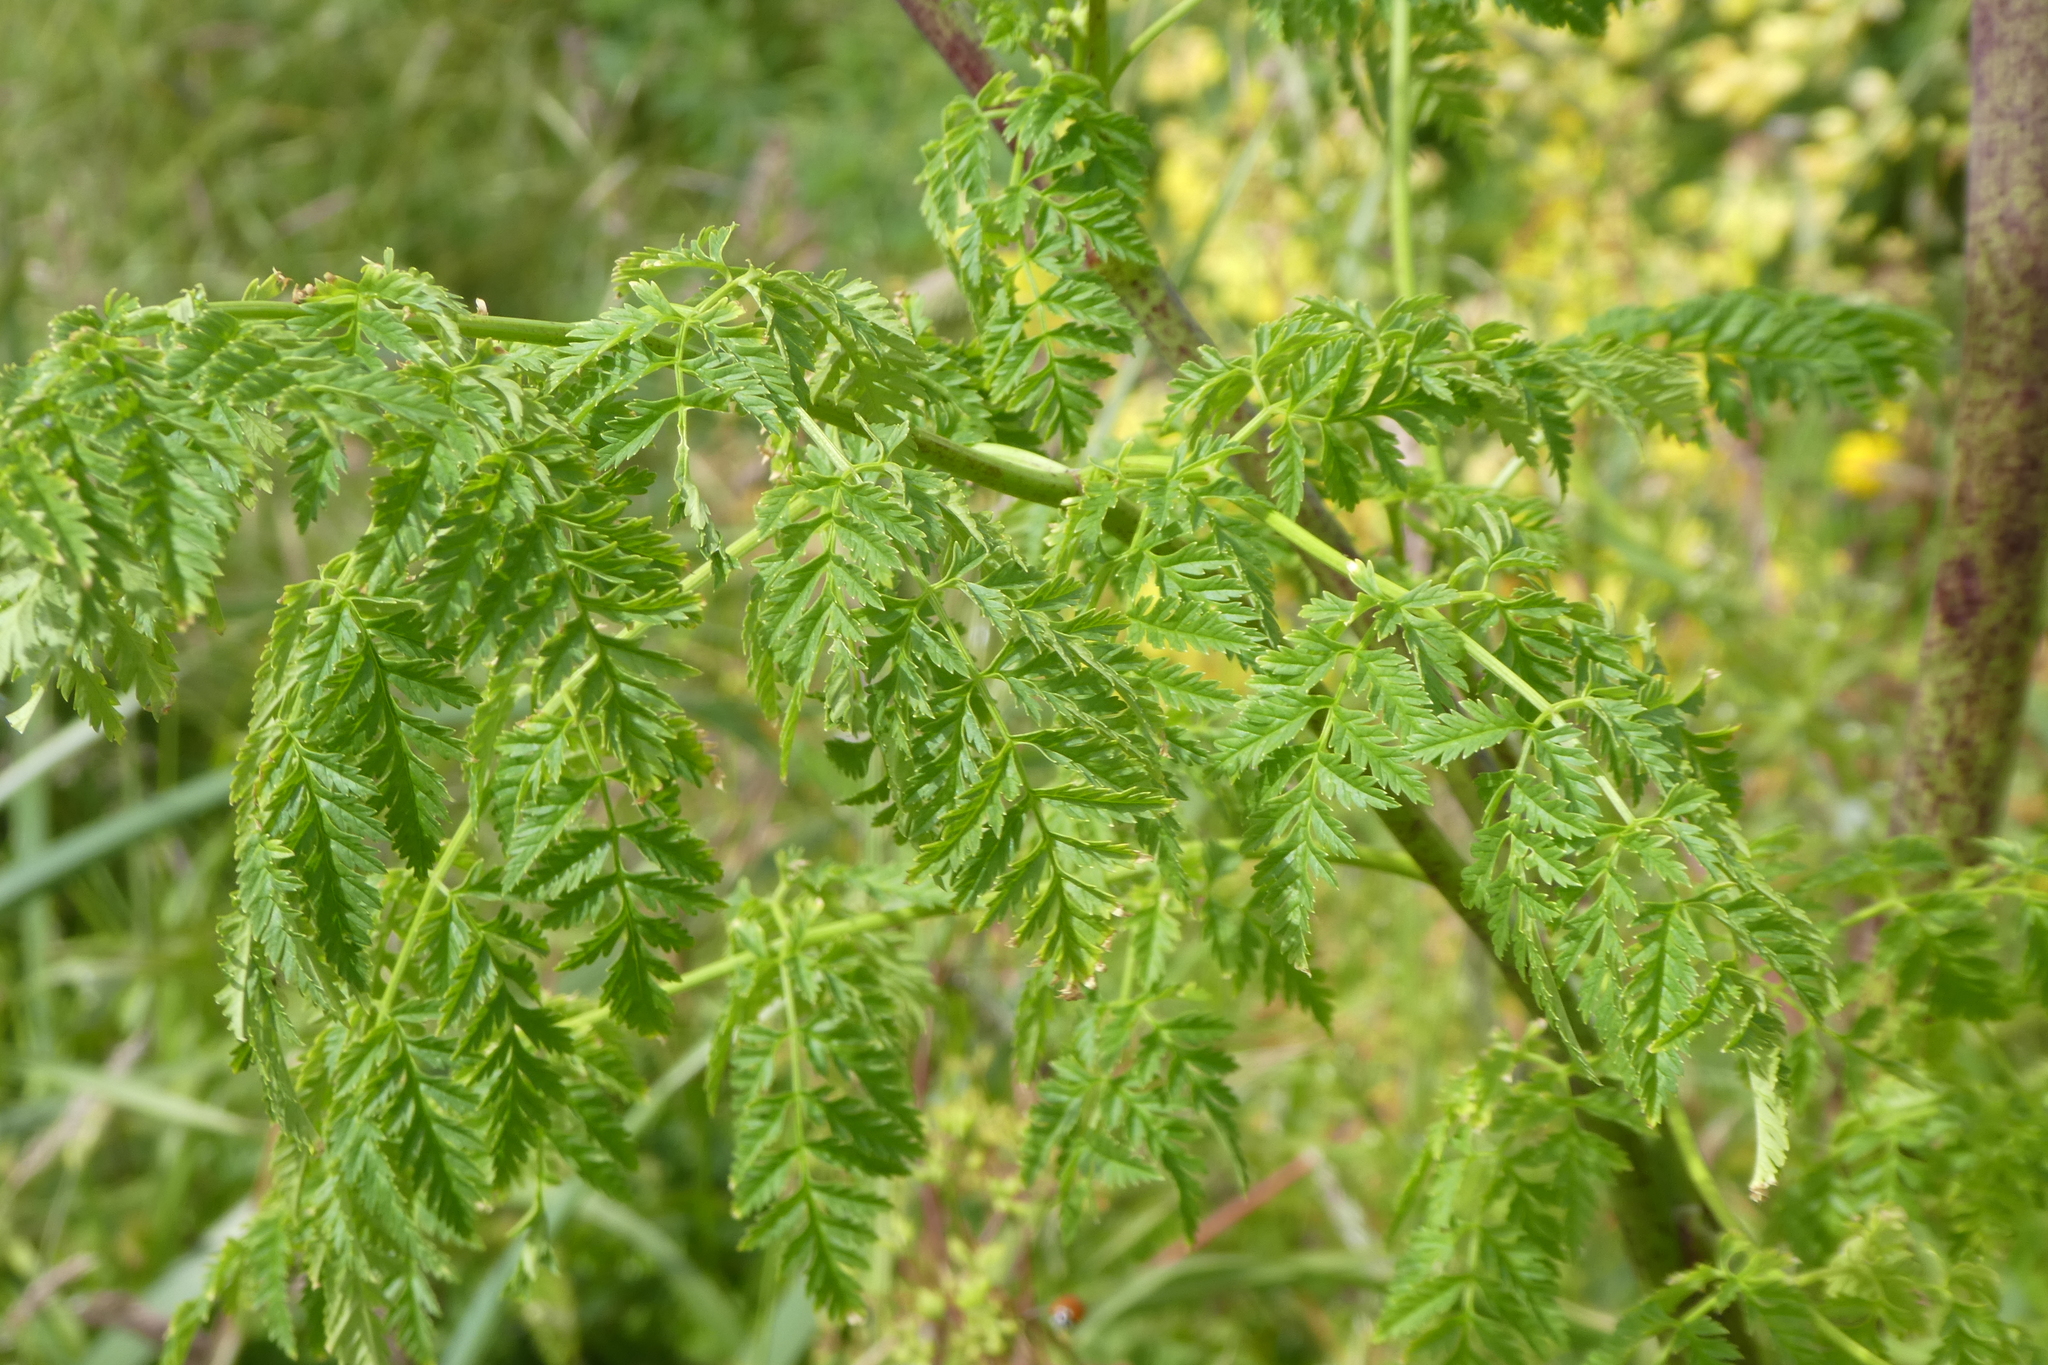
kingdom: Plantae
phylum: Tracheophyta
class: Magnoliopsida
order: Apiales
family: Apiaceae
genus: Conium
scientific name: Conium maculatum
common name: Hemlock
